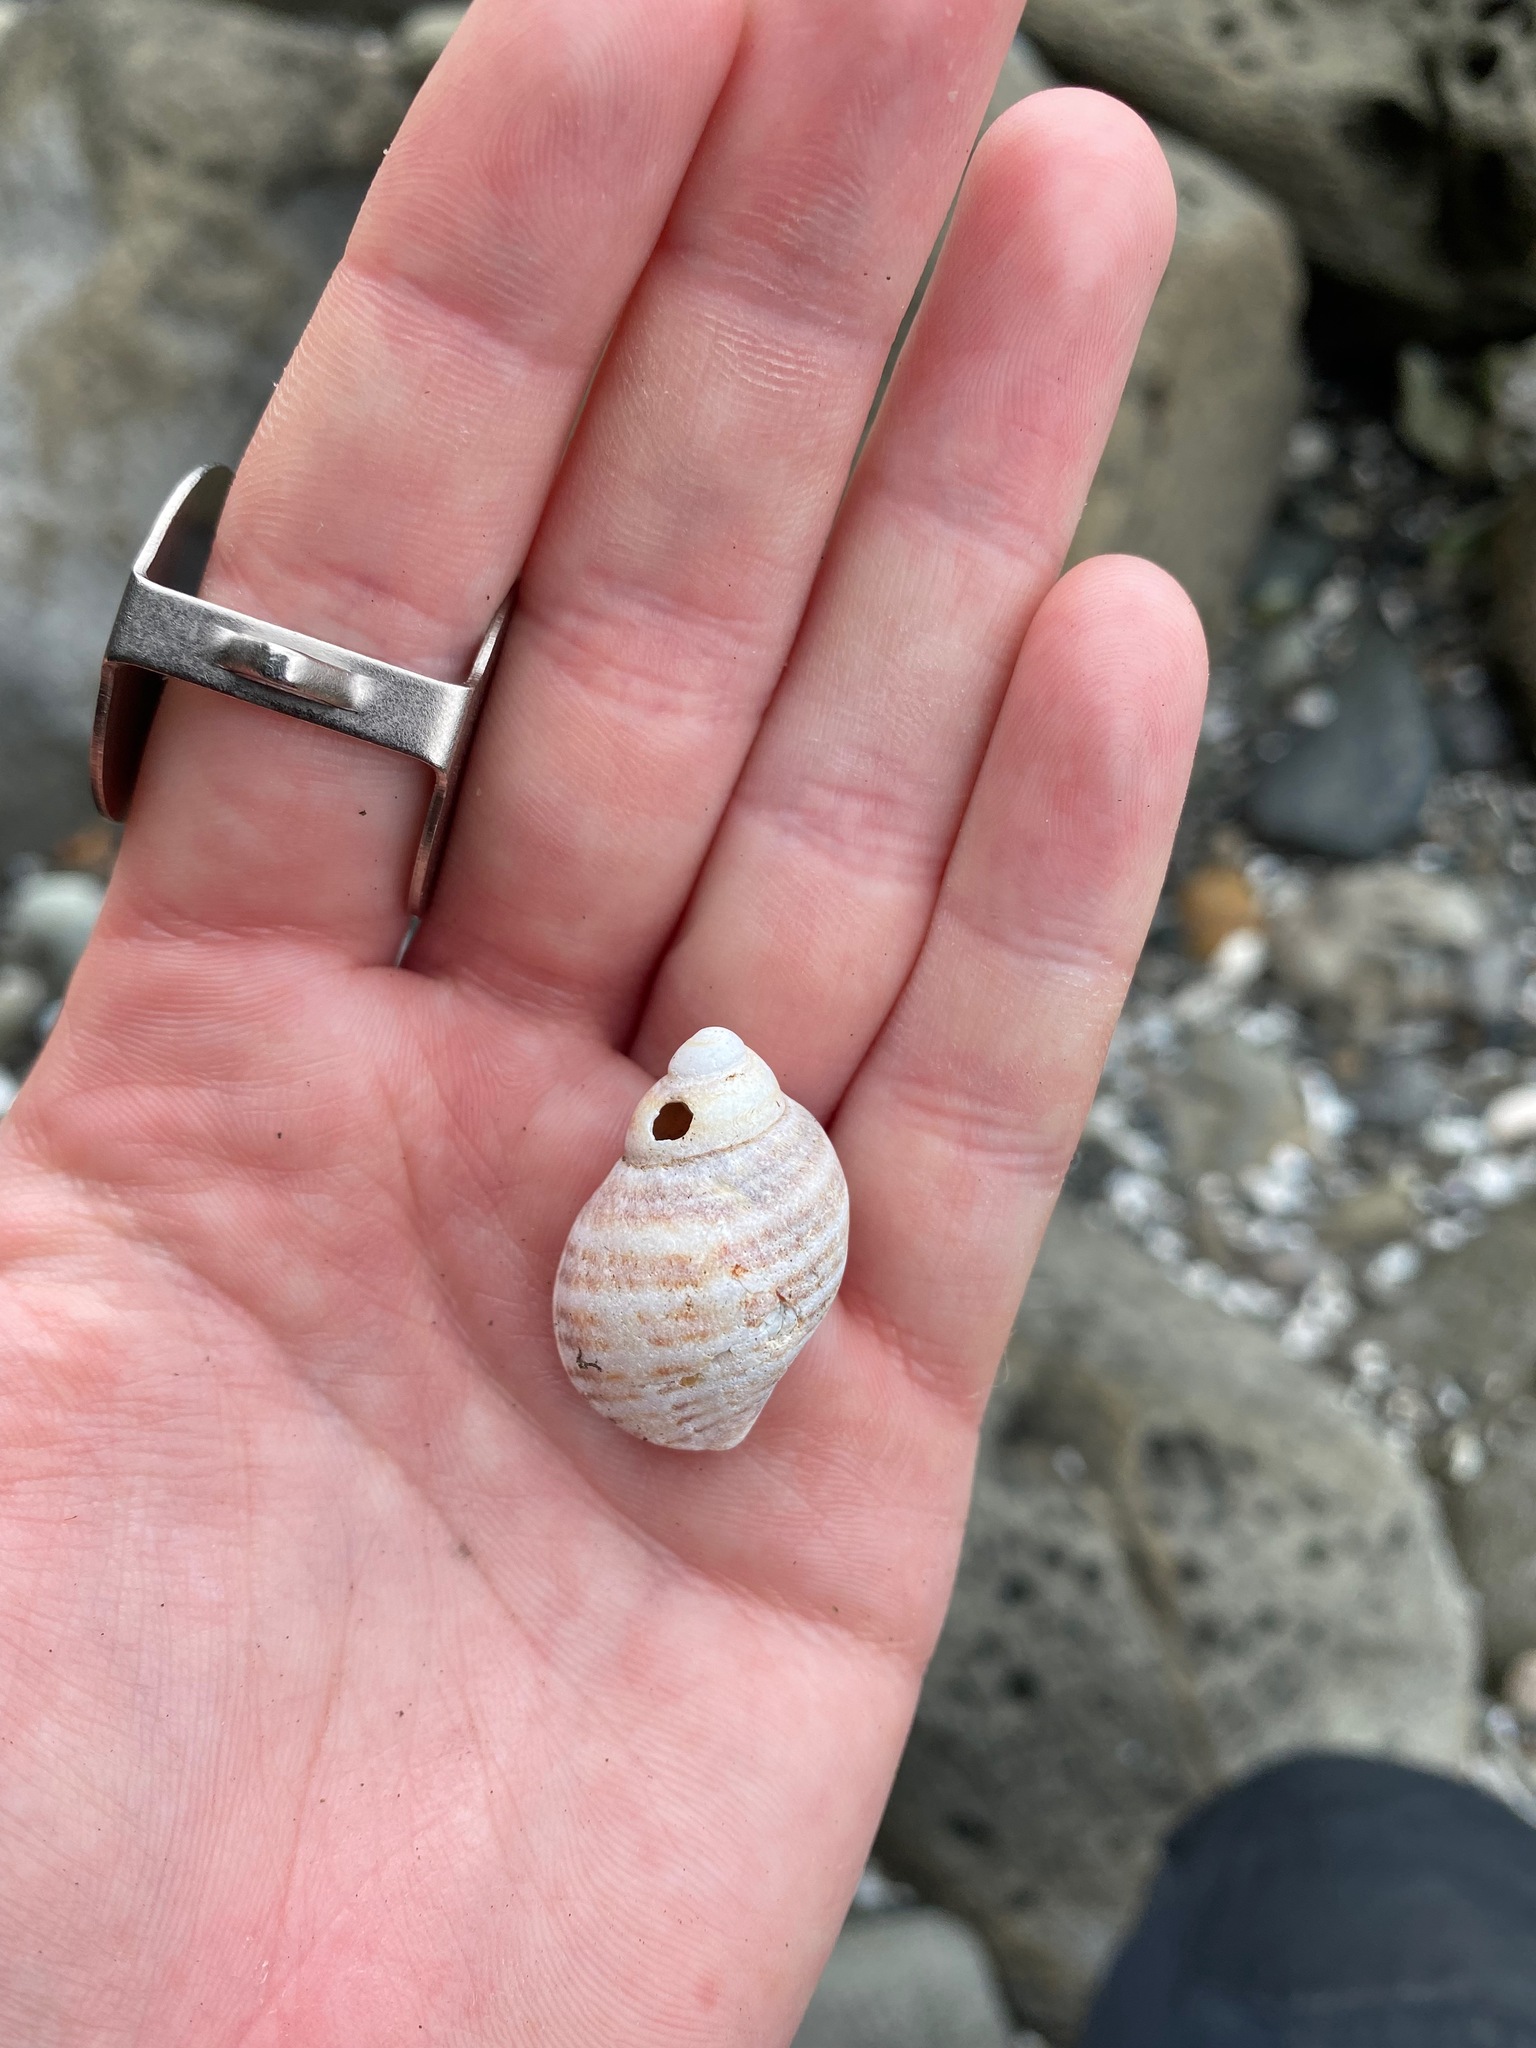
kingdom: Animalia
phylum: Mollusca
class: Gastropoda
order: Neogastropoda
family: Muricidae
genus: Nucella
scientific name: Nucella ostrina
